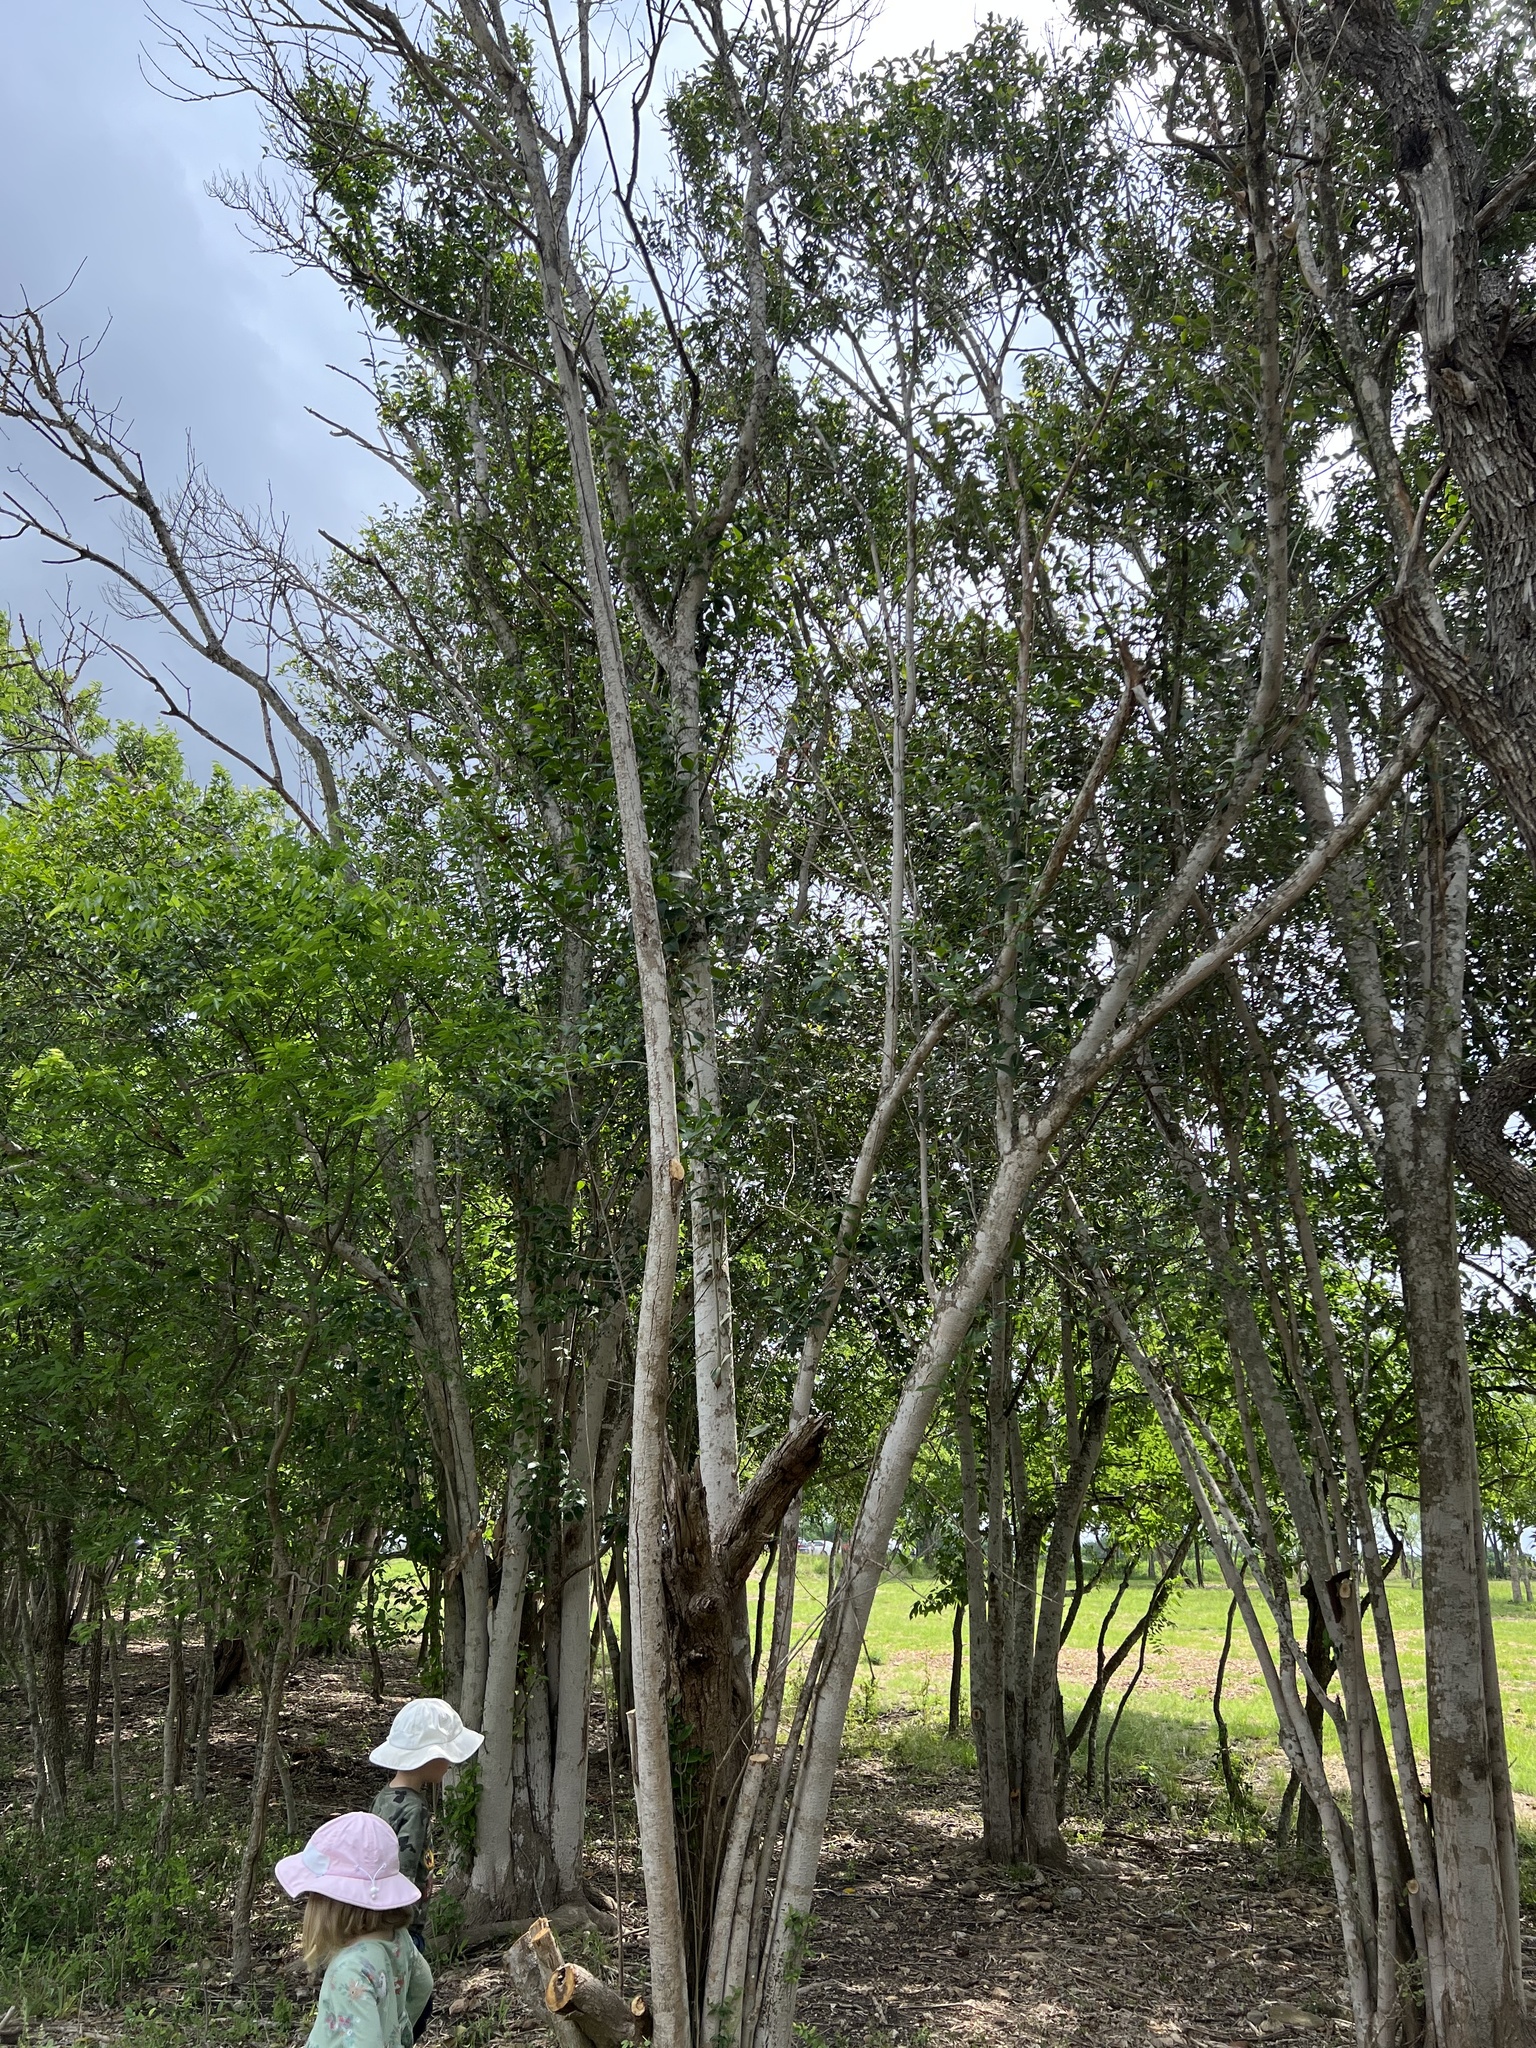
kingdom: Plantae
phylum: Tracheophyta
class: Magnoliopsida
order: Lamiales
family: Oleaceae
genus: Ligustrum
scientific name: Ligustrum lucidum
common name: Glossy privet
